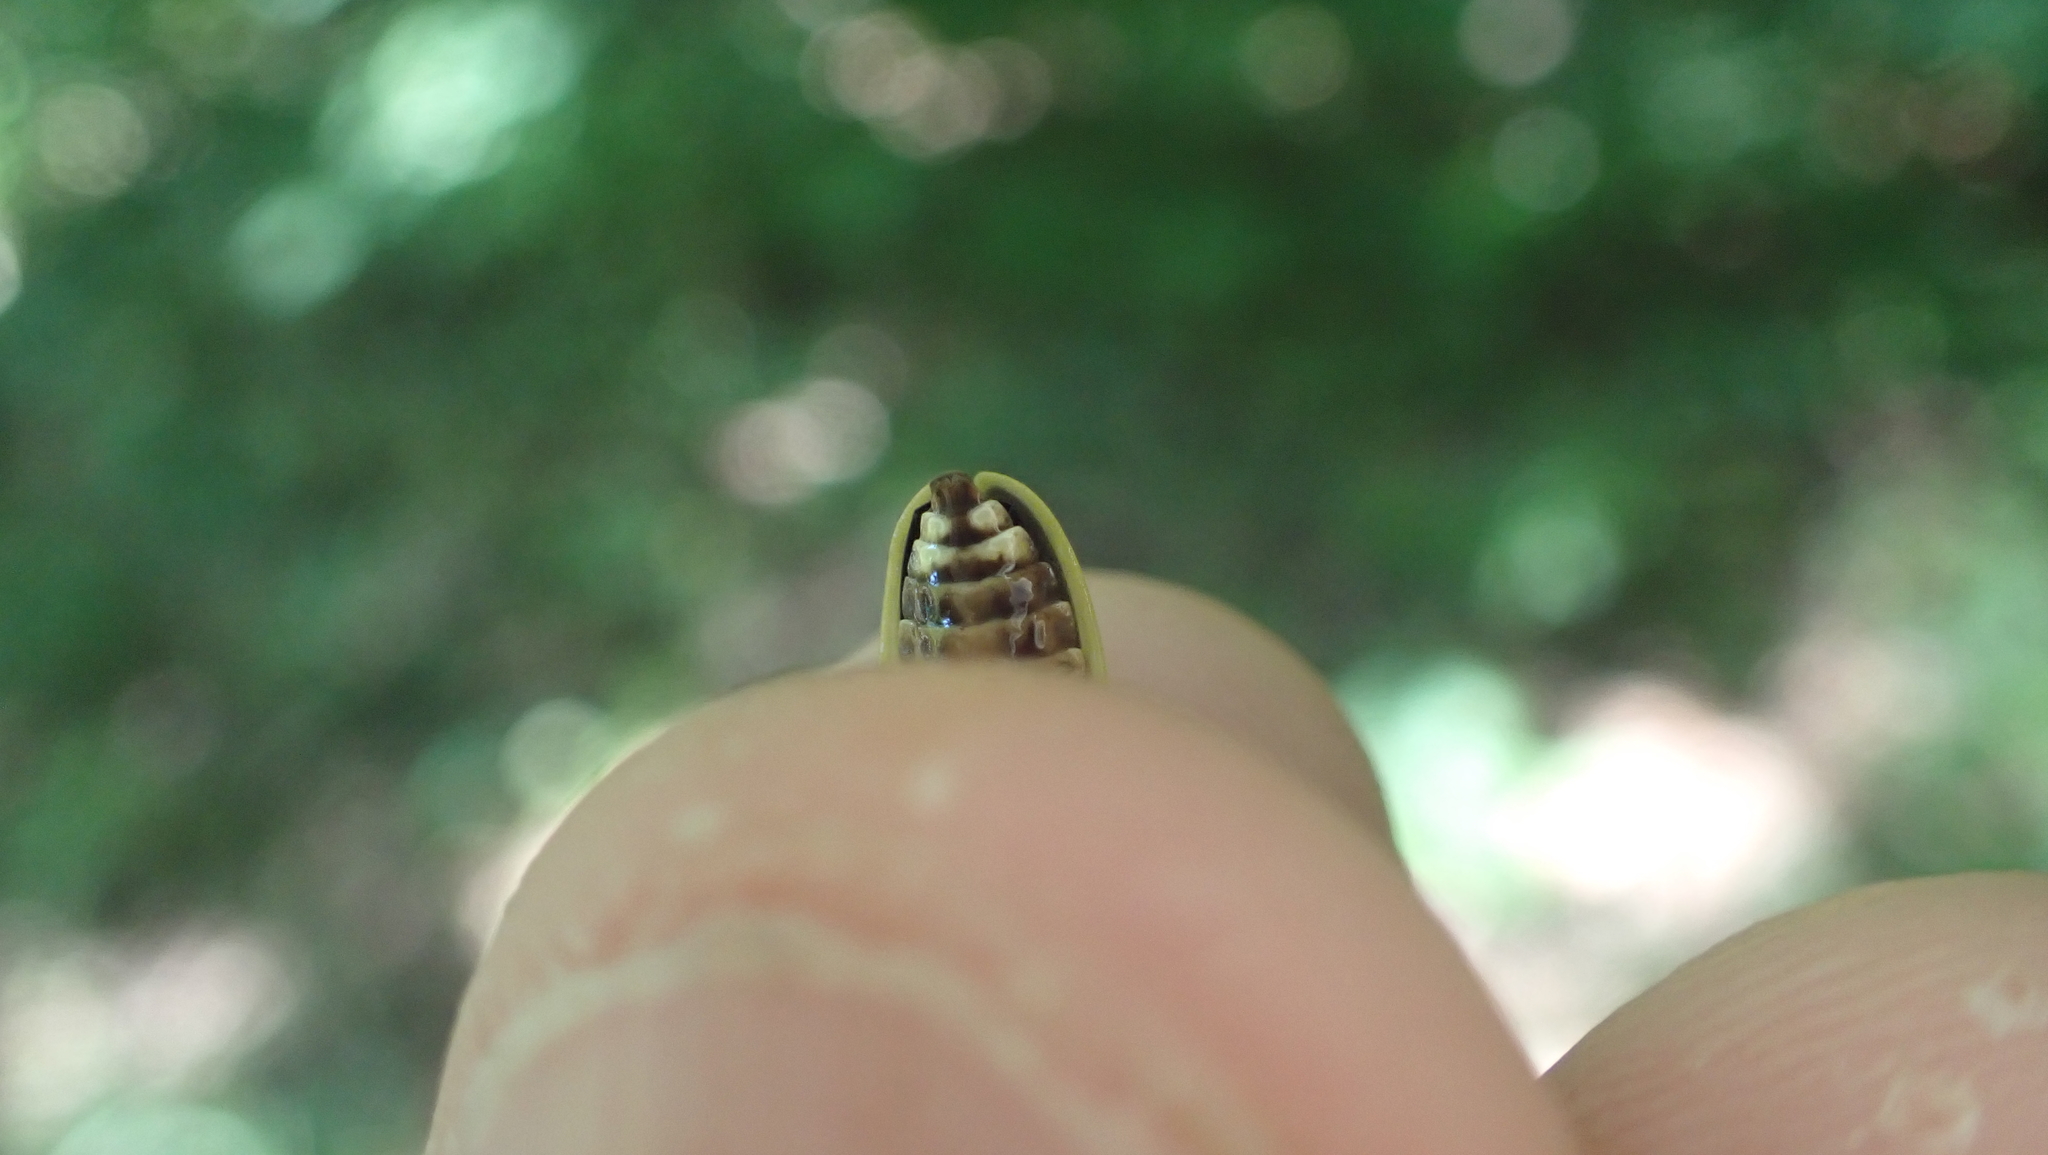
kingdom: Animalia
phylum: Arthropoda
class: Insecta
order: Coleoptera
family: Lampyridae
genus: Pyractomena
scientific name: Pyractomena angulata
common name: Candle firefly
